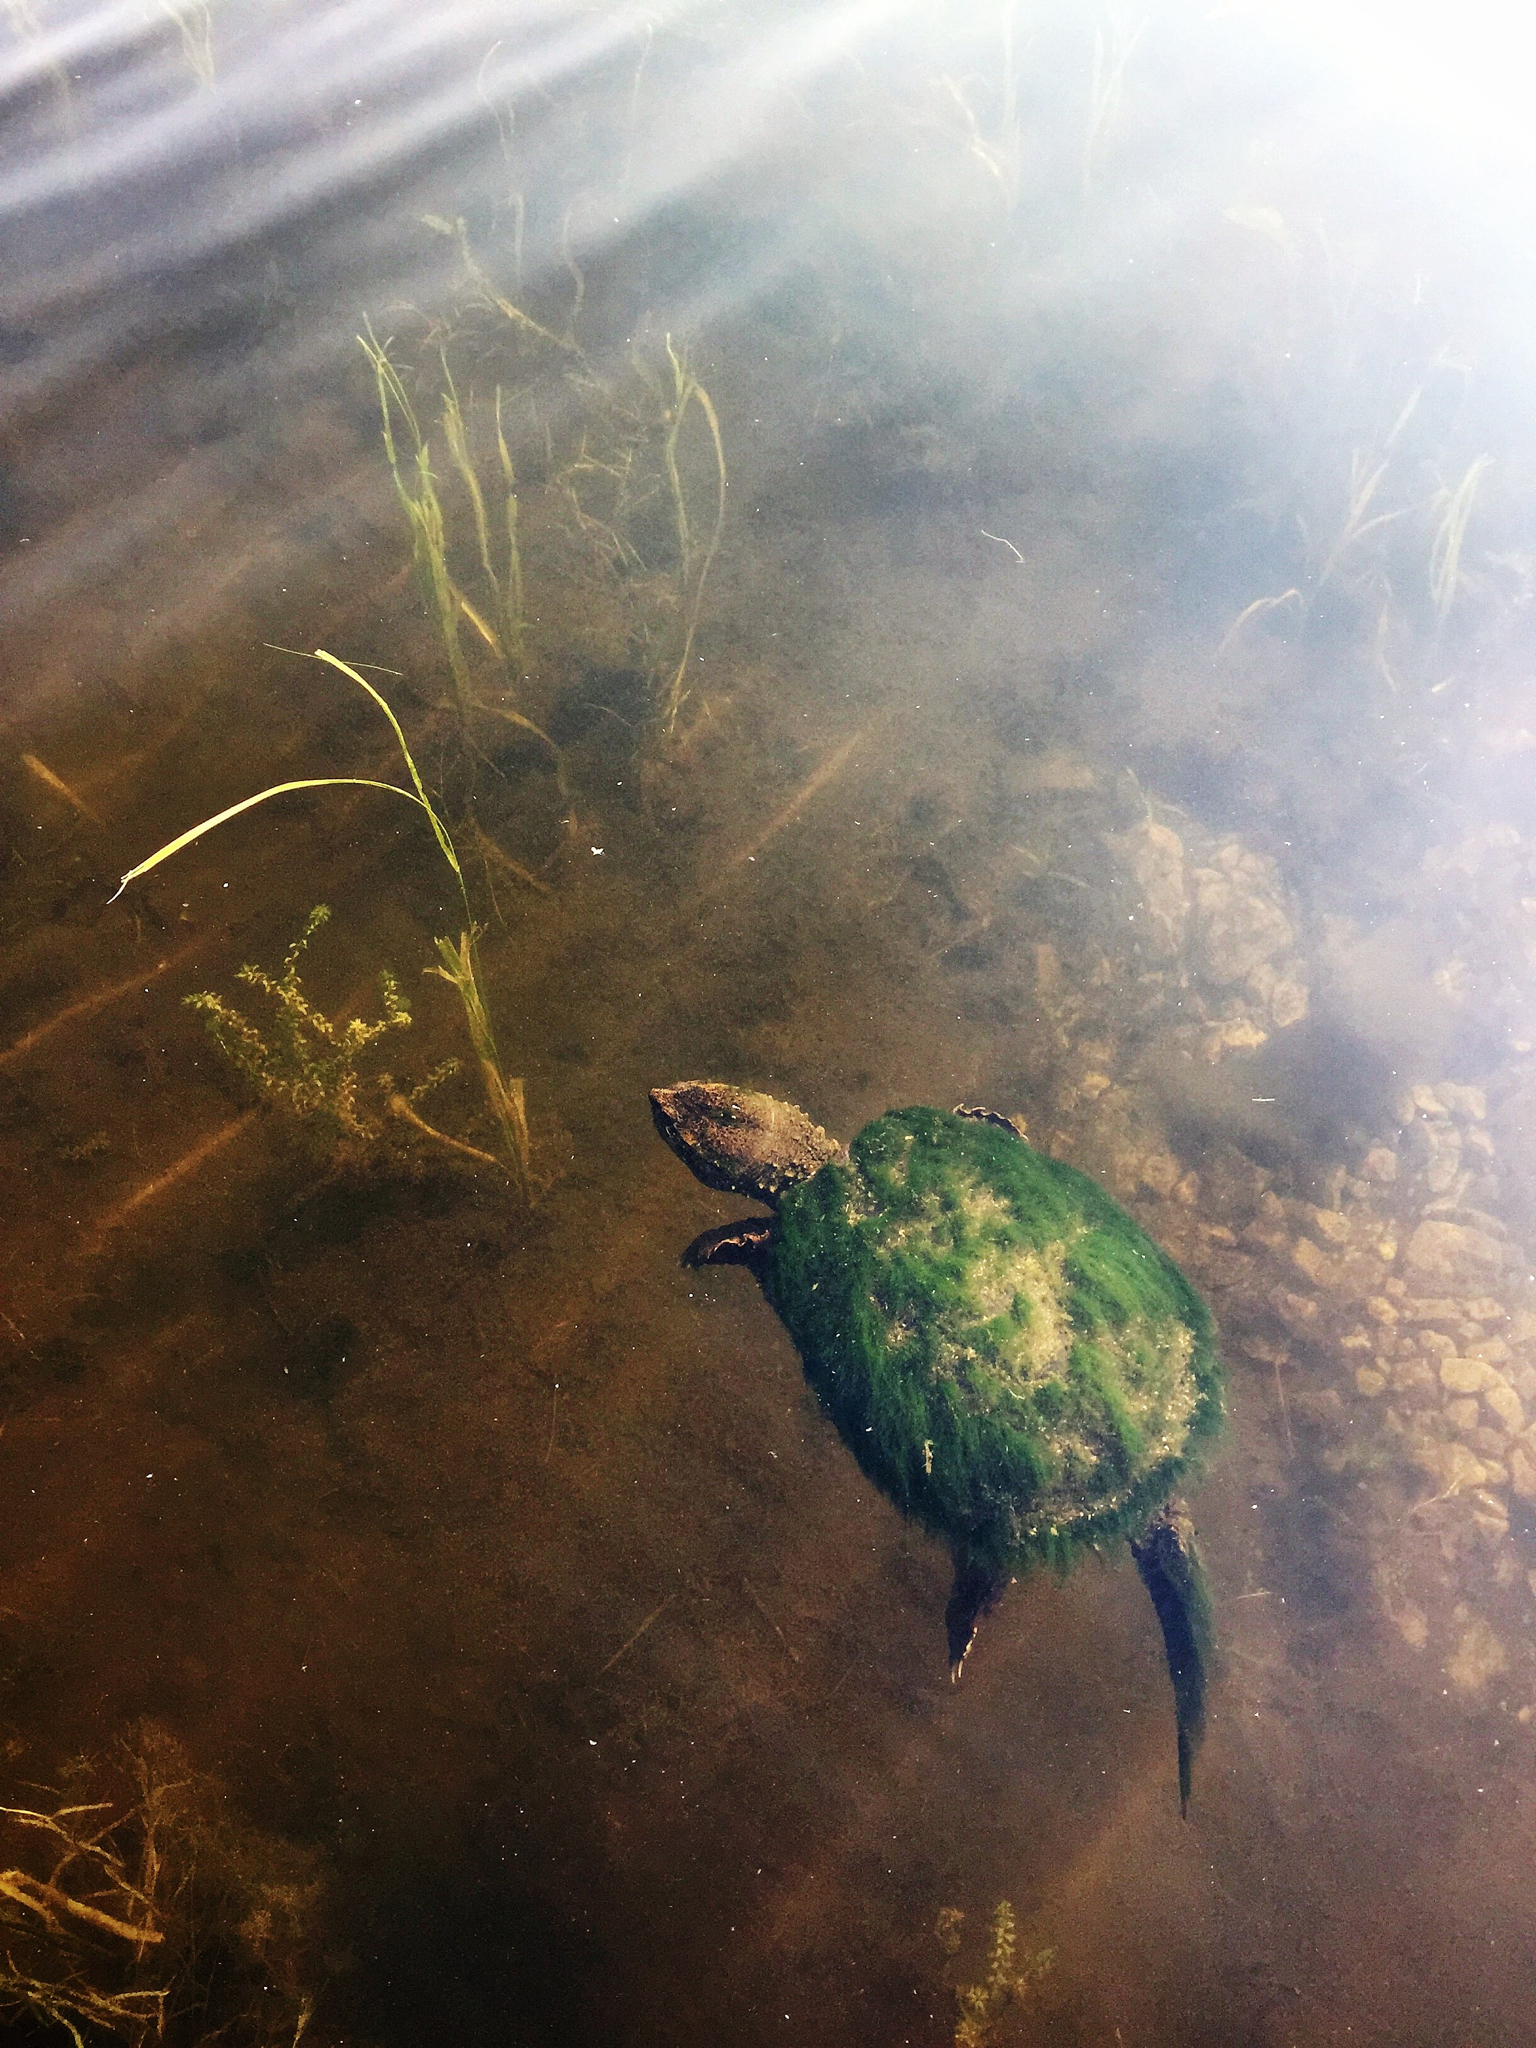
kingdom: Animalia
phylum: Chordata
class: Testudines
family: Chelydridae
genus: Chelydra
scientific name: Chelydra serpentina
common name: Common snapping turtle
